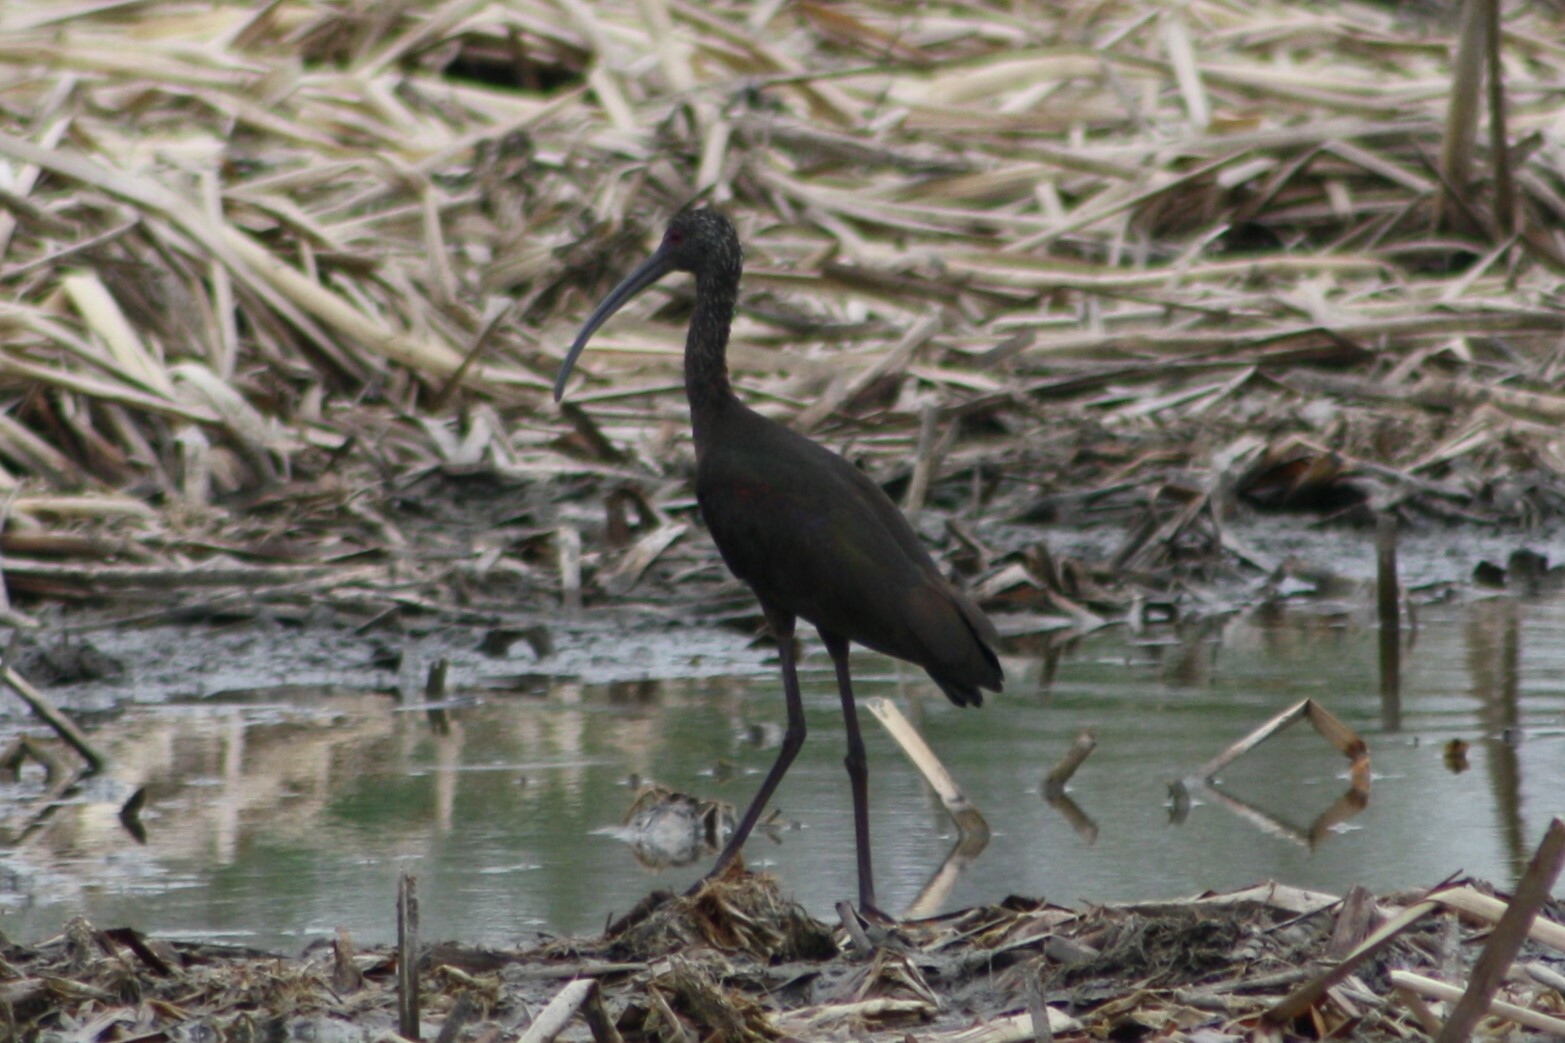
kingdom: Animalia
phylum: Chordata
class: Aves
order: Pelecaniformes
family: Threskiornithidae
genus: Plegadis
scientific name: Plegadis chihi
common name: White-faced ibis
